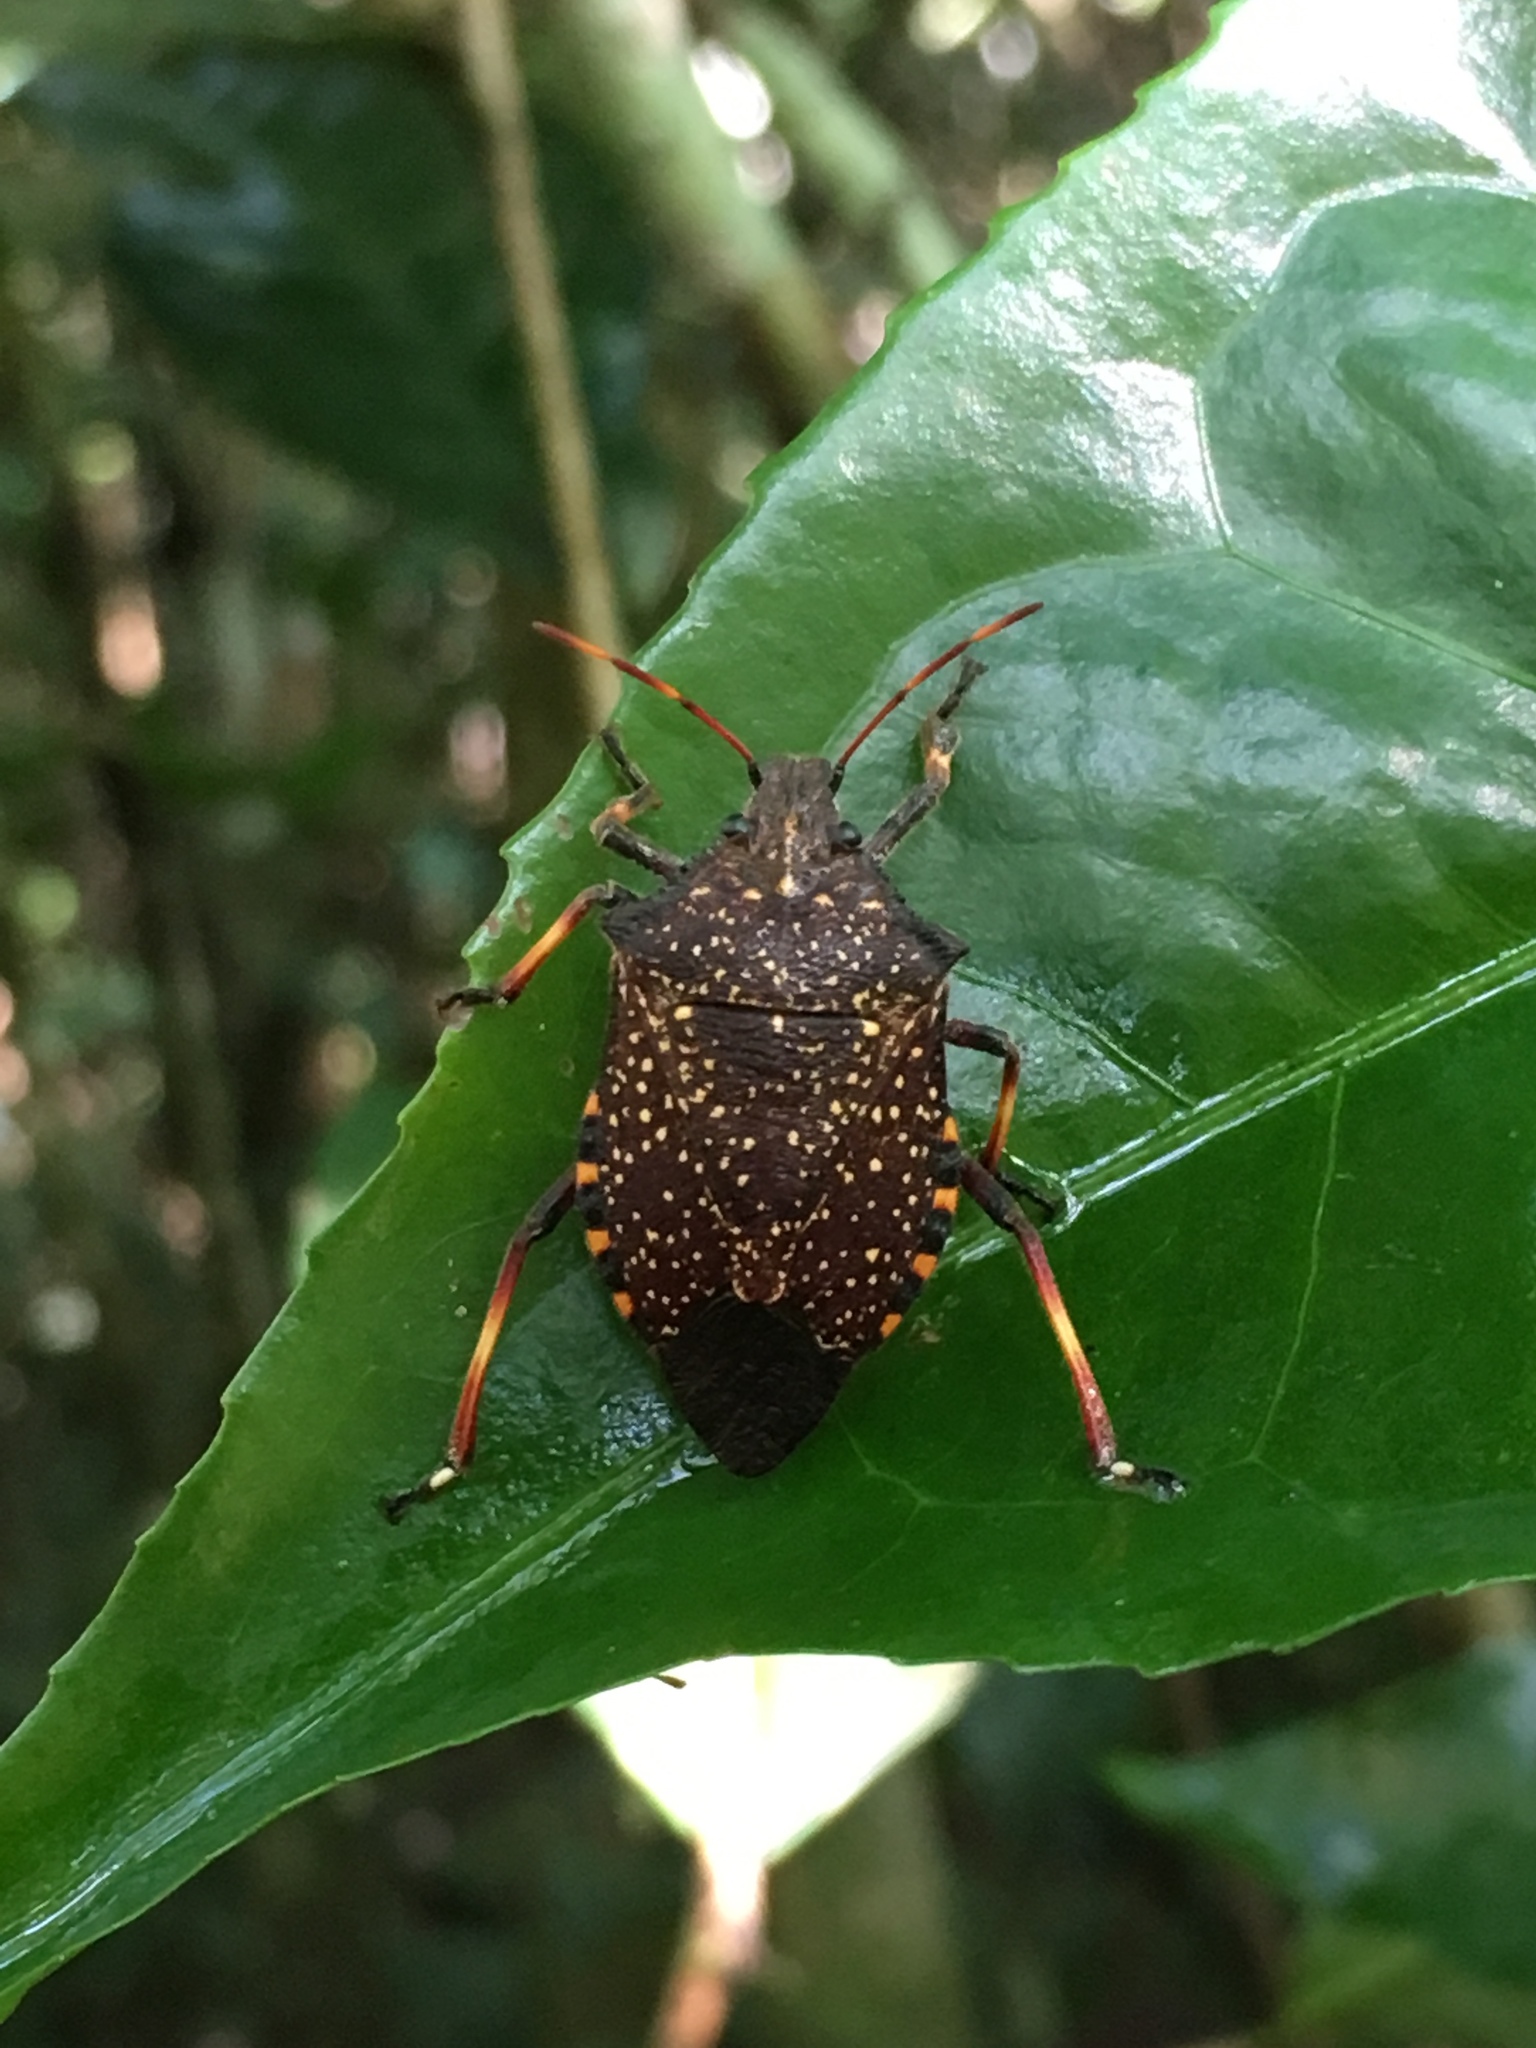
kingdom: Animalia
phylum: Arthropoda
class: Insecta
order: Hemiptera
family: Pentatomidae
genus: Nealeria
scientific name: Nealeria
